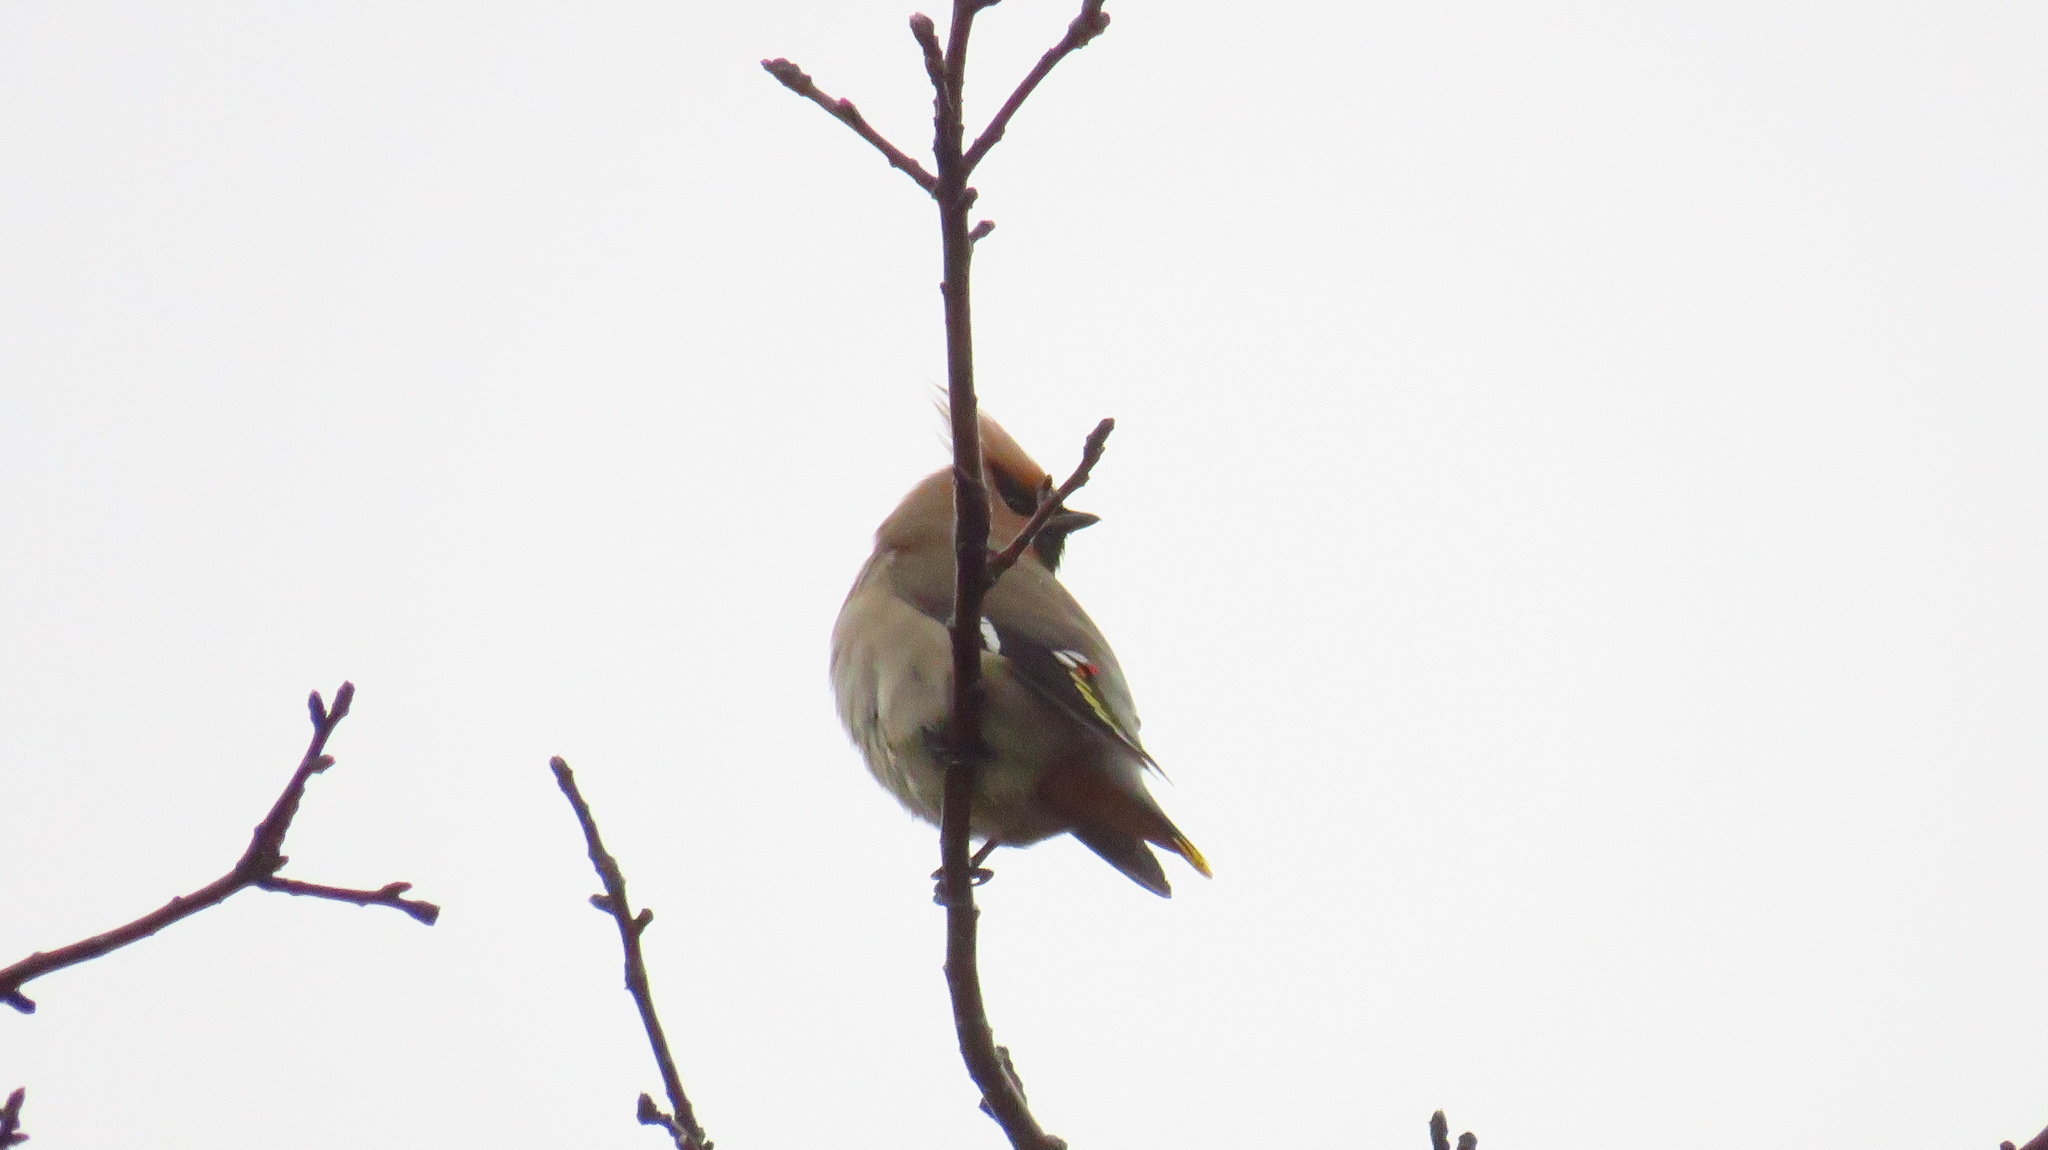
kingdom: Animalia
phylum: Chordata
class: Aves
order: Passeriformes
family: Bombycillidae
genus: Bombycilla
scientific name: Bombycilla garrulus
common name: Bohemian waxwing
